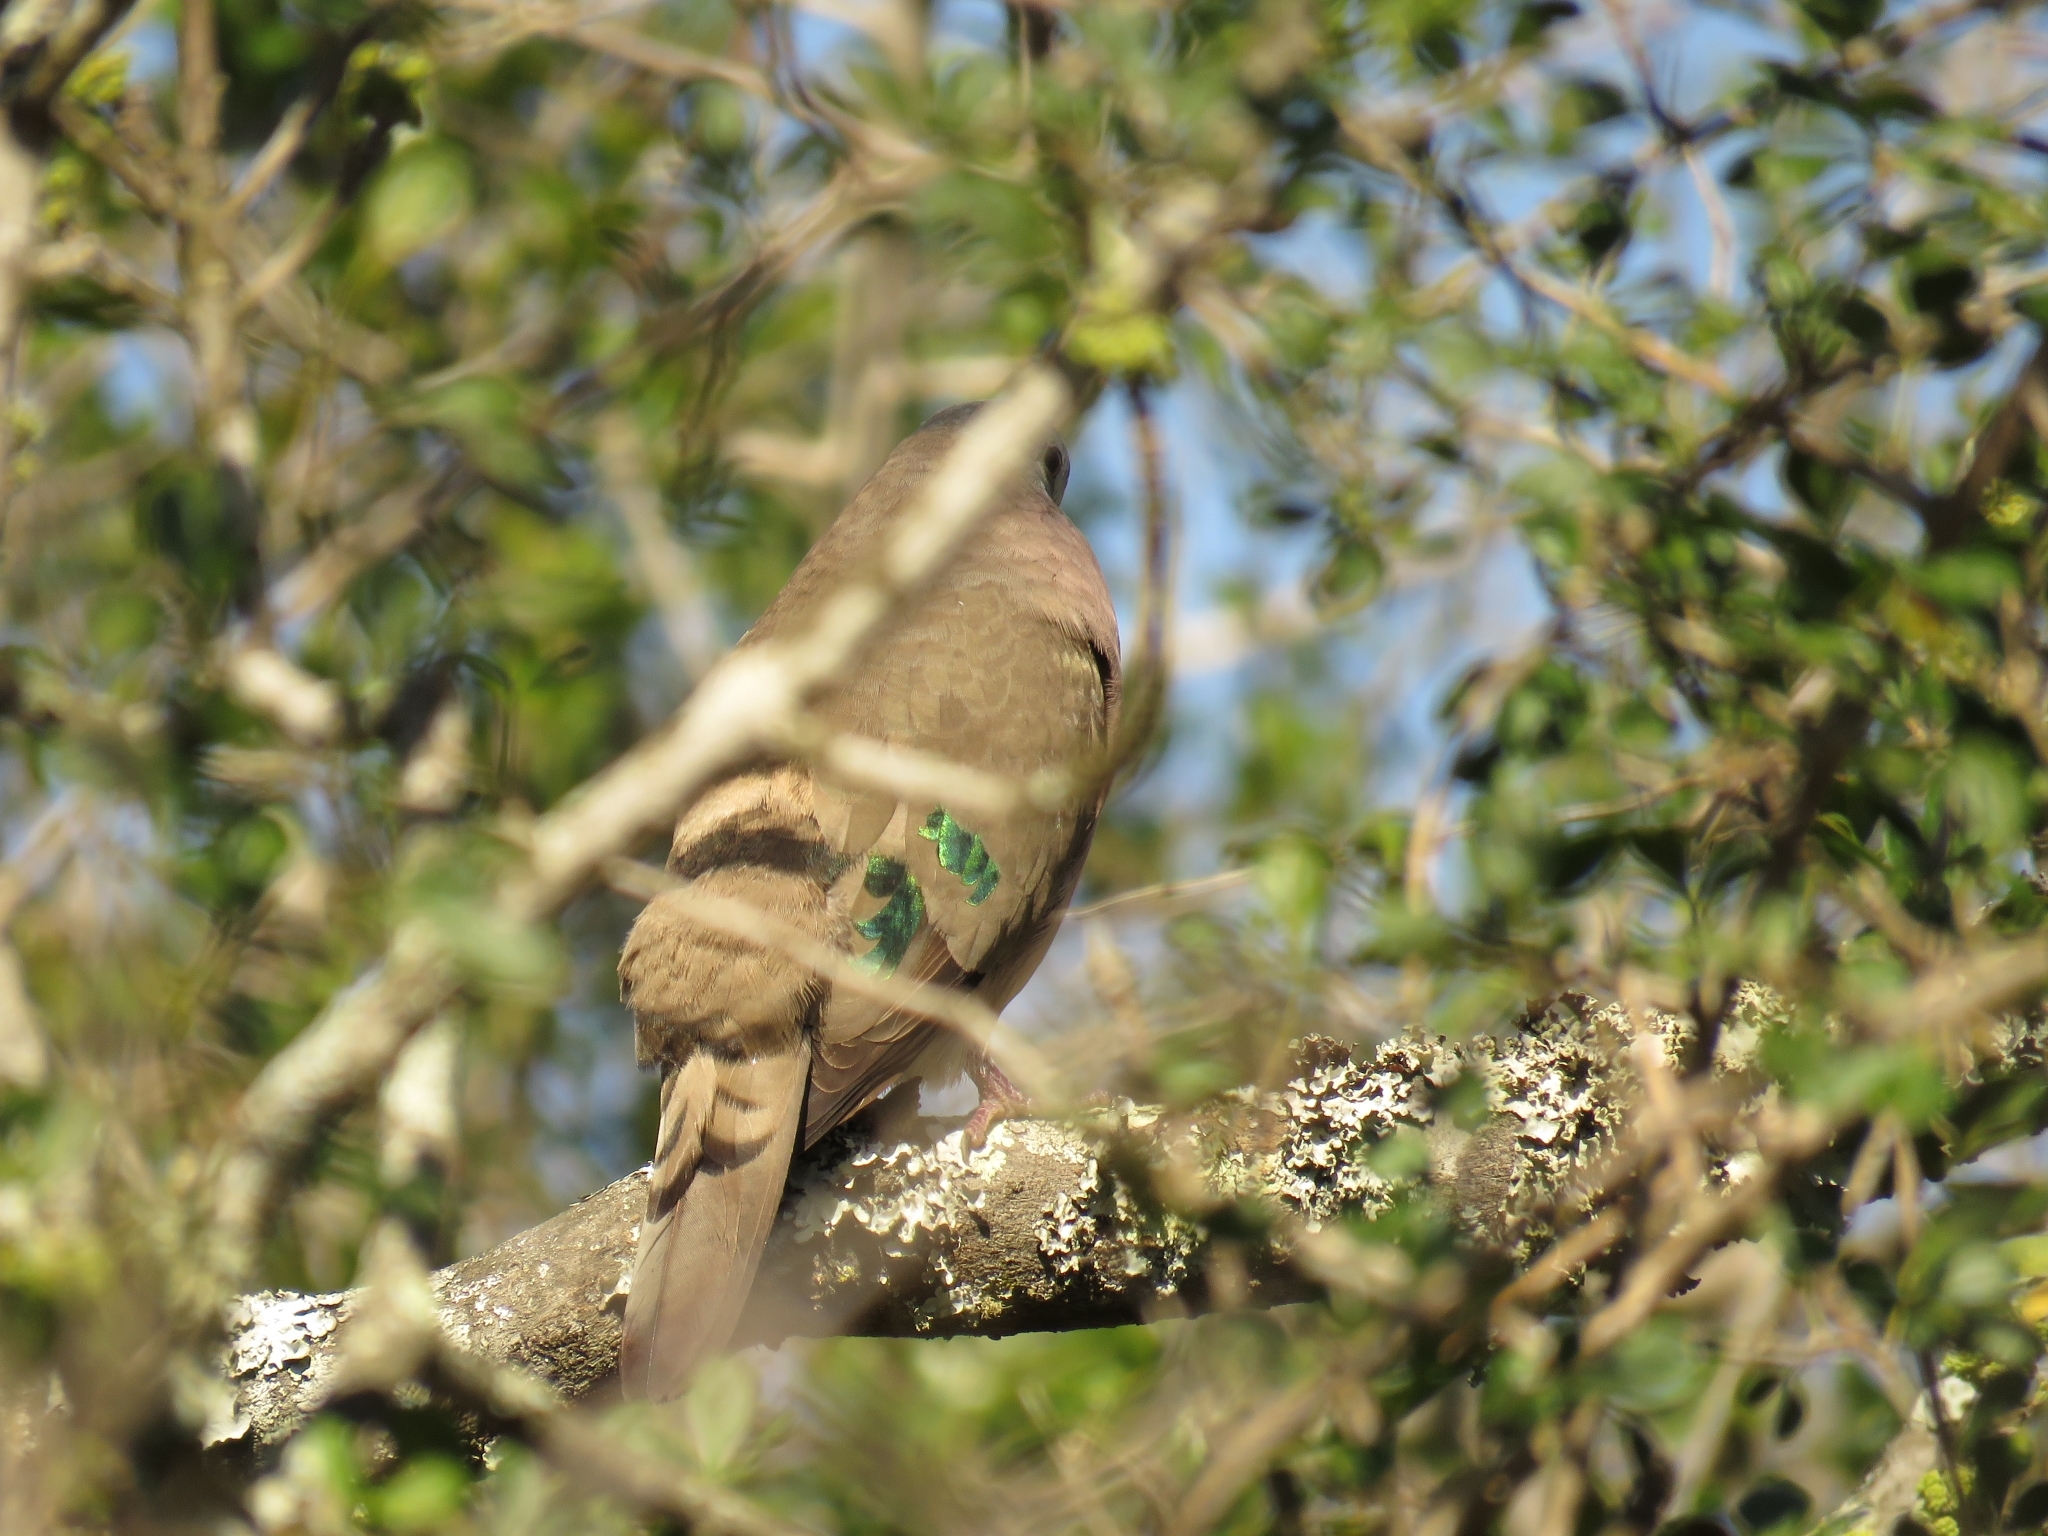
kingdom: Animalia
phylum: Chordata
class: Aves
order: Columbiformes
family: Columbidae
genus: Turtur
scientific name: Turtur chalcospilos
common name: Emerald-spotted wood dove
